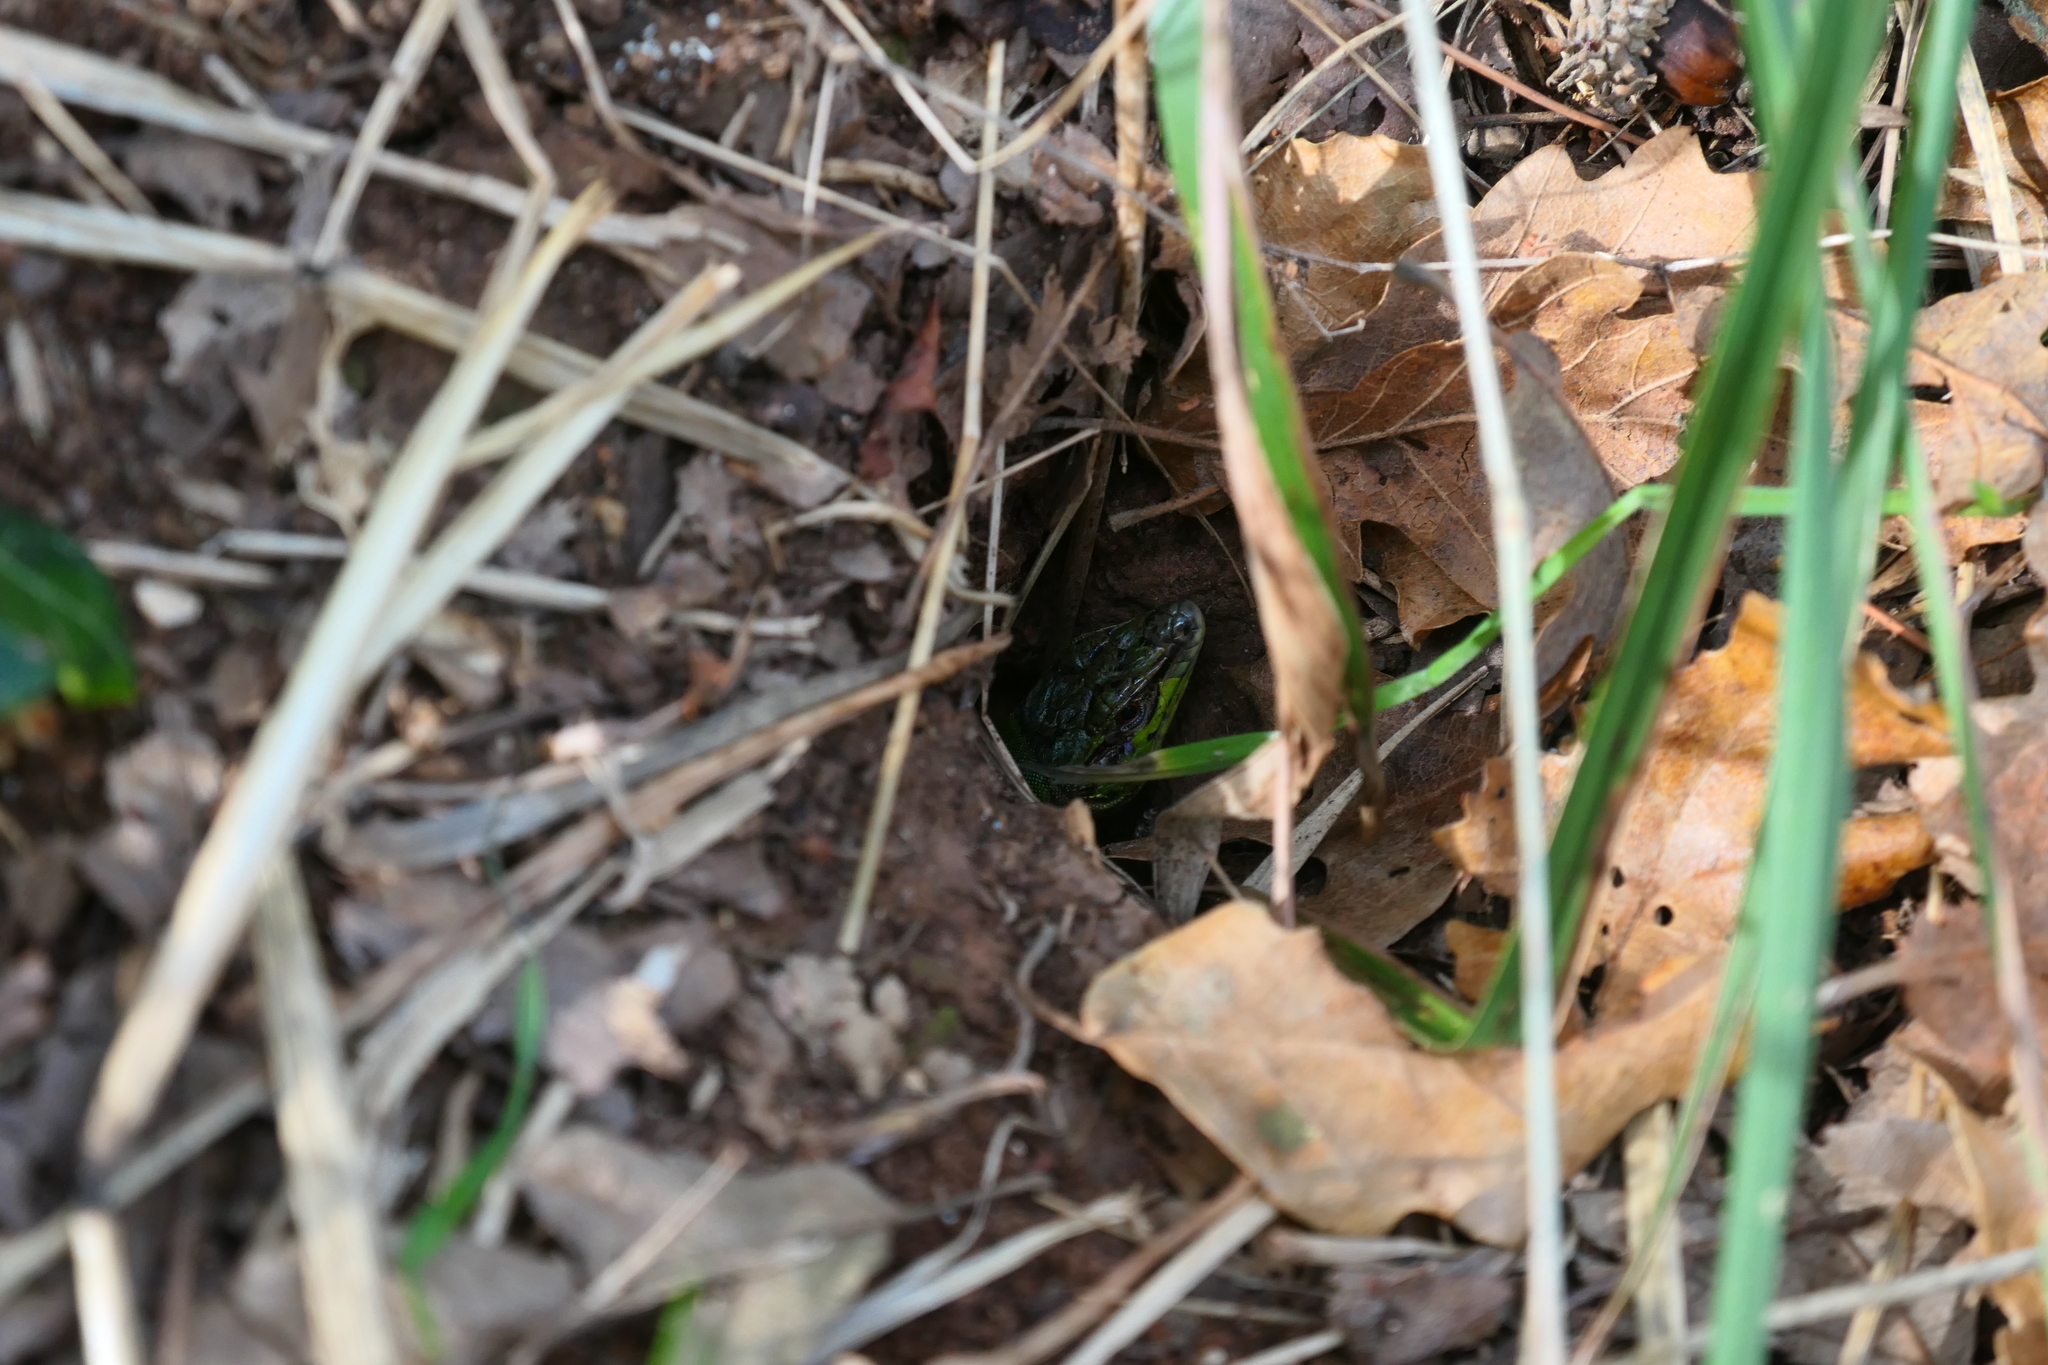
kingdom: Animalia
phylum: Chordata
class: Squamata
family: Lacertidae
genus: Podarcis
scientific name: Podarcis siculus
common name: Italian wall lizard
